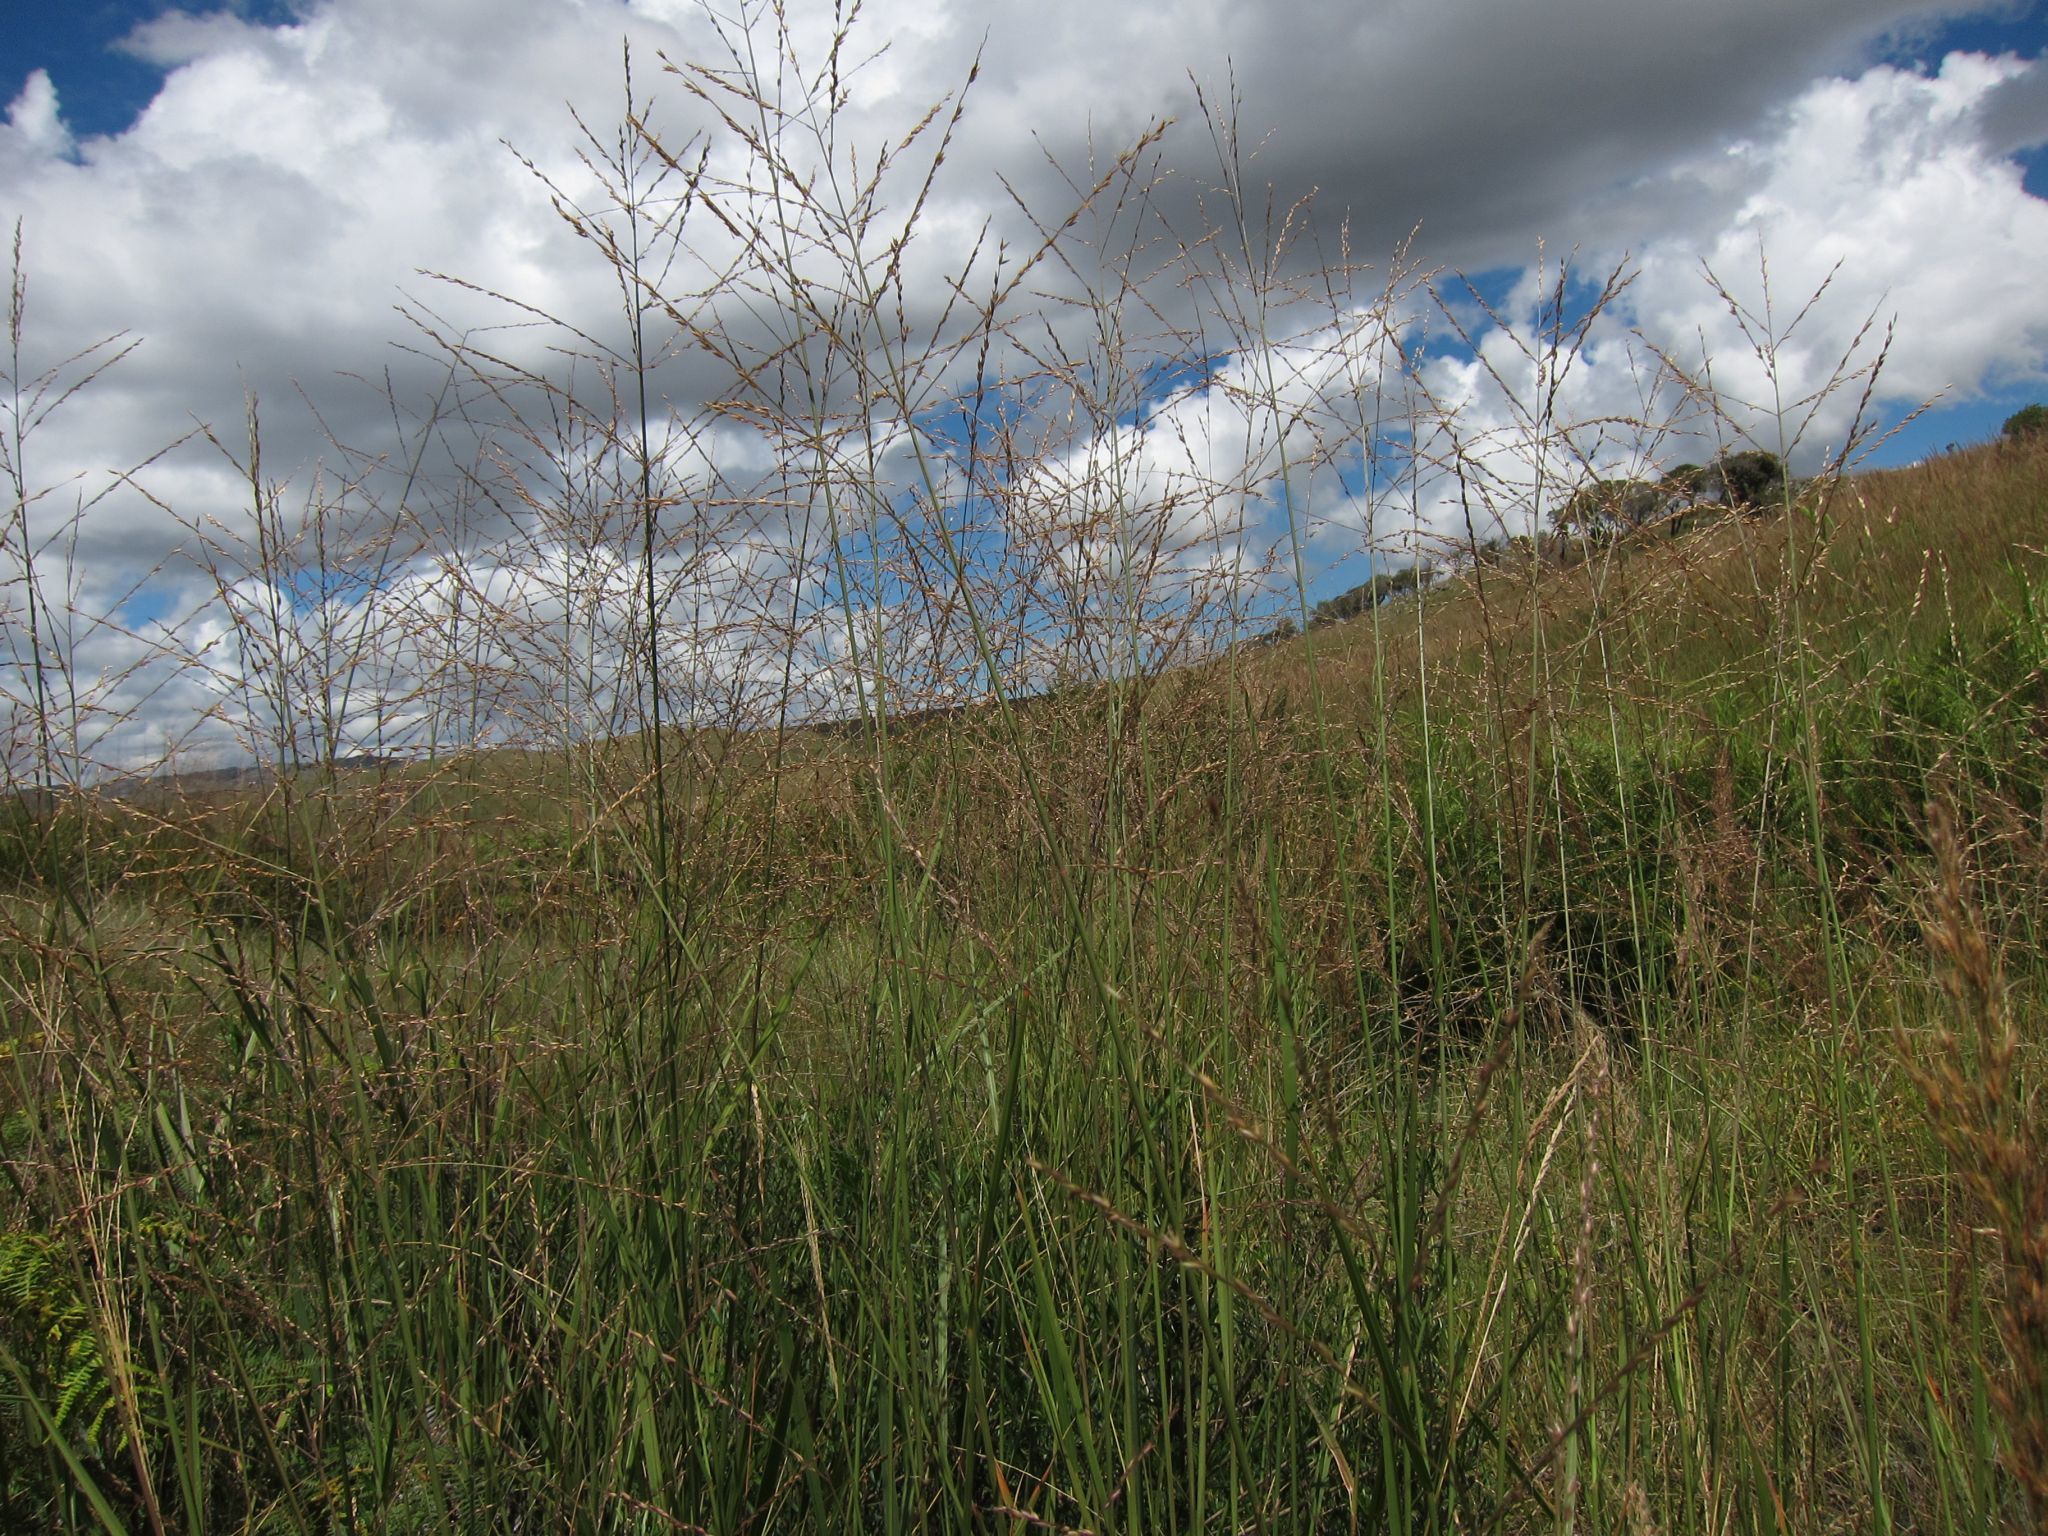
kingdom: Plantae
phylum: Tracheophyta
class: Liliopsida
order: Poales
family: Poaceae
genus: Arundinella
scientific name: Arundinella nepalensis
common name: Reed grass
